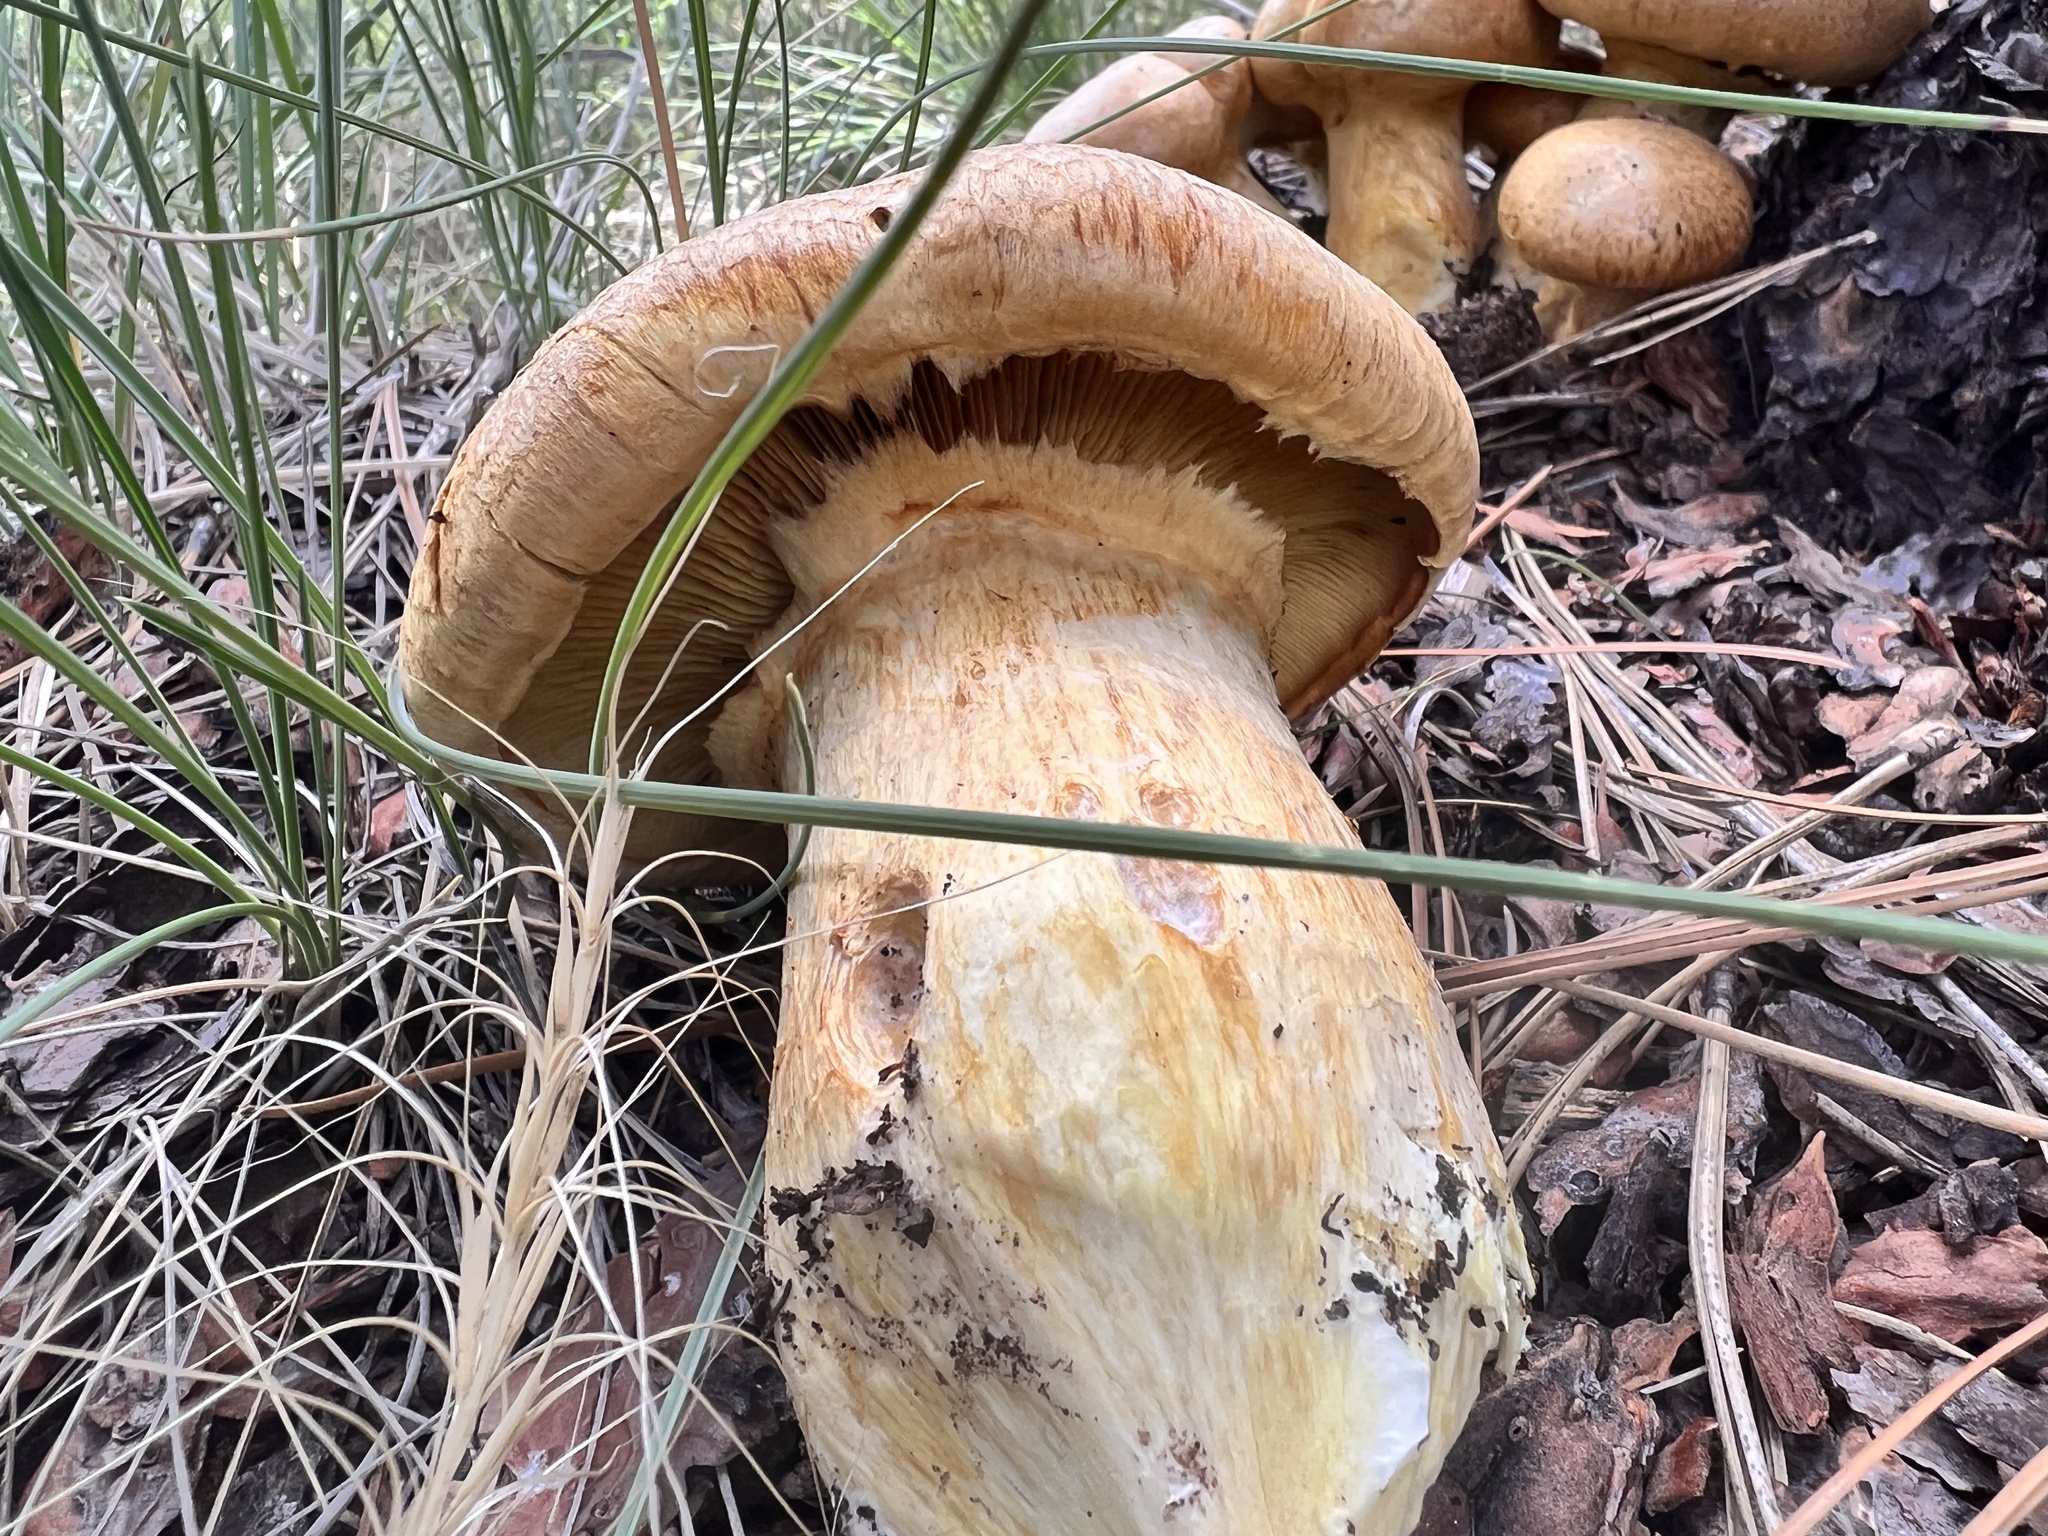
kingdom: Fungi
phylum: Basidiomycota
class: Agaricomycetes
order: Agaricales
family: Hymenogastraceae
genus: Gymnopilus
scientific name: Gymnopilus ventricosus
